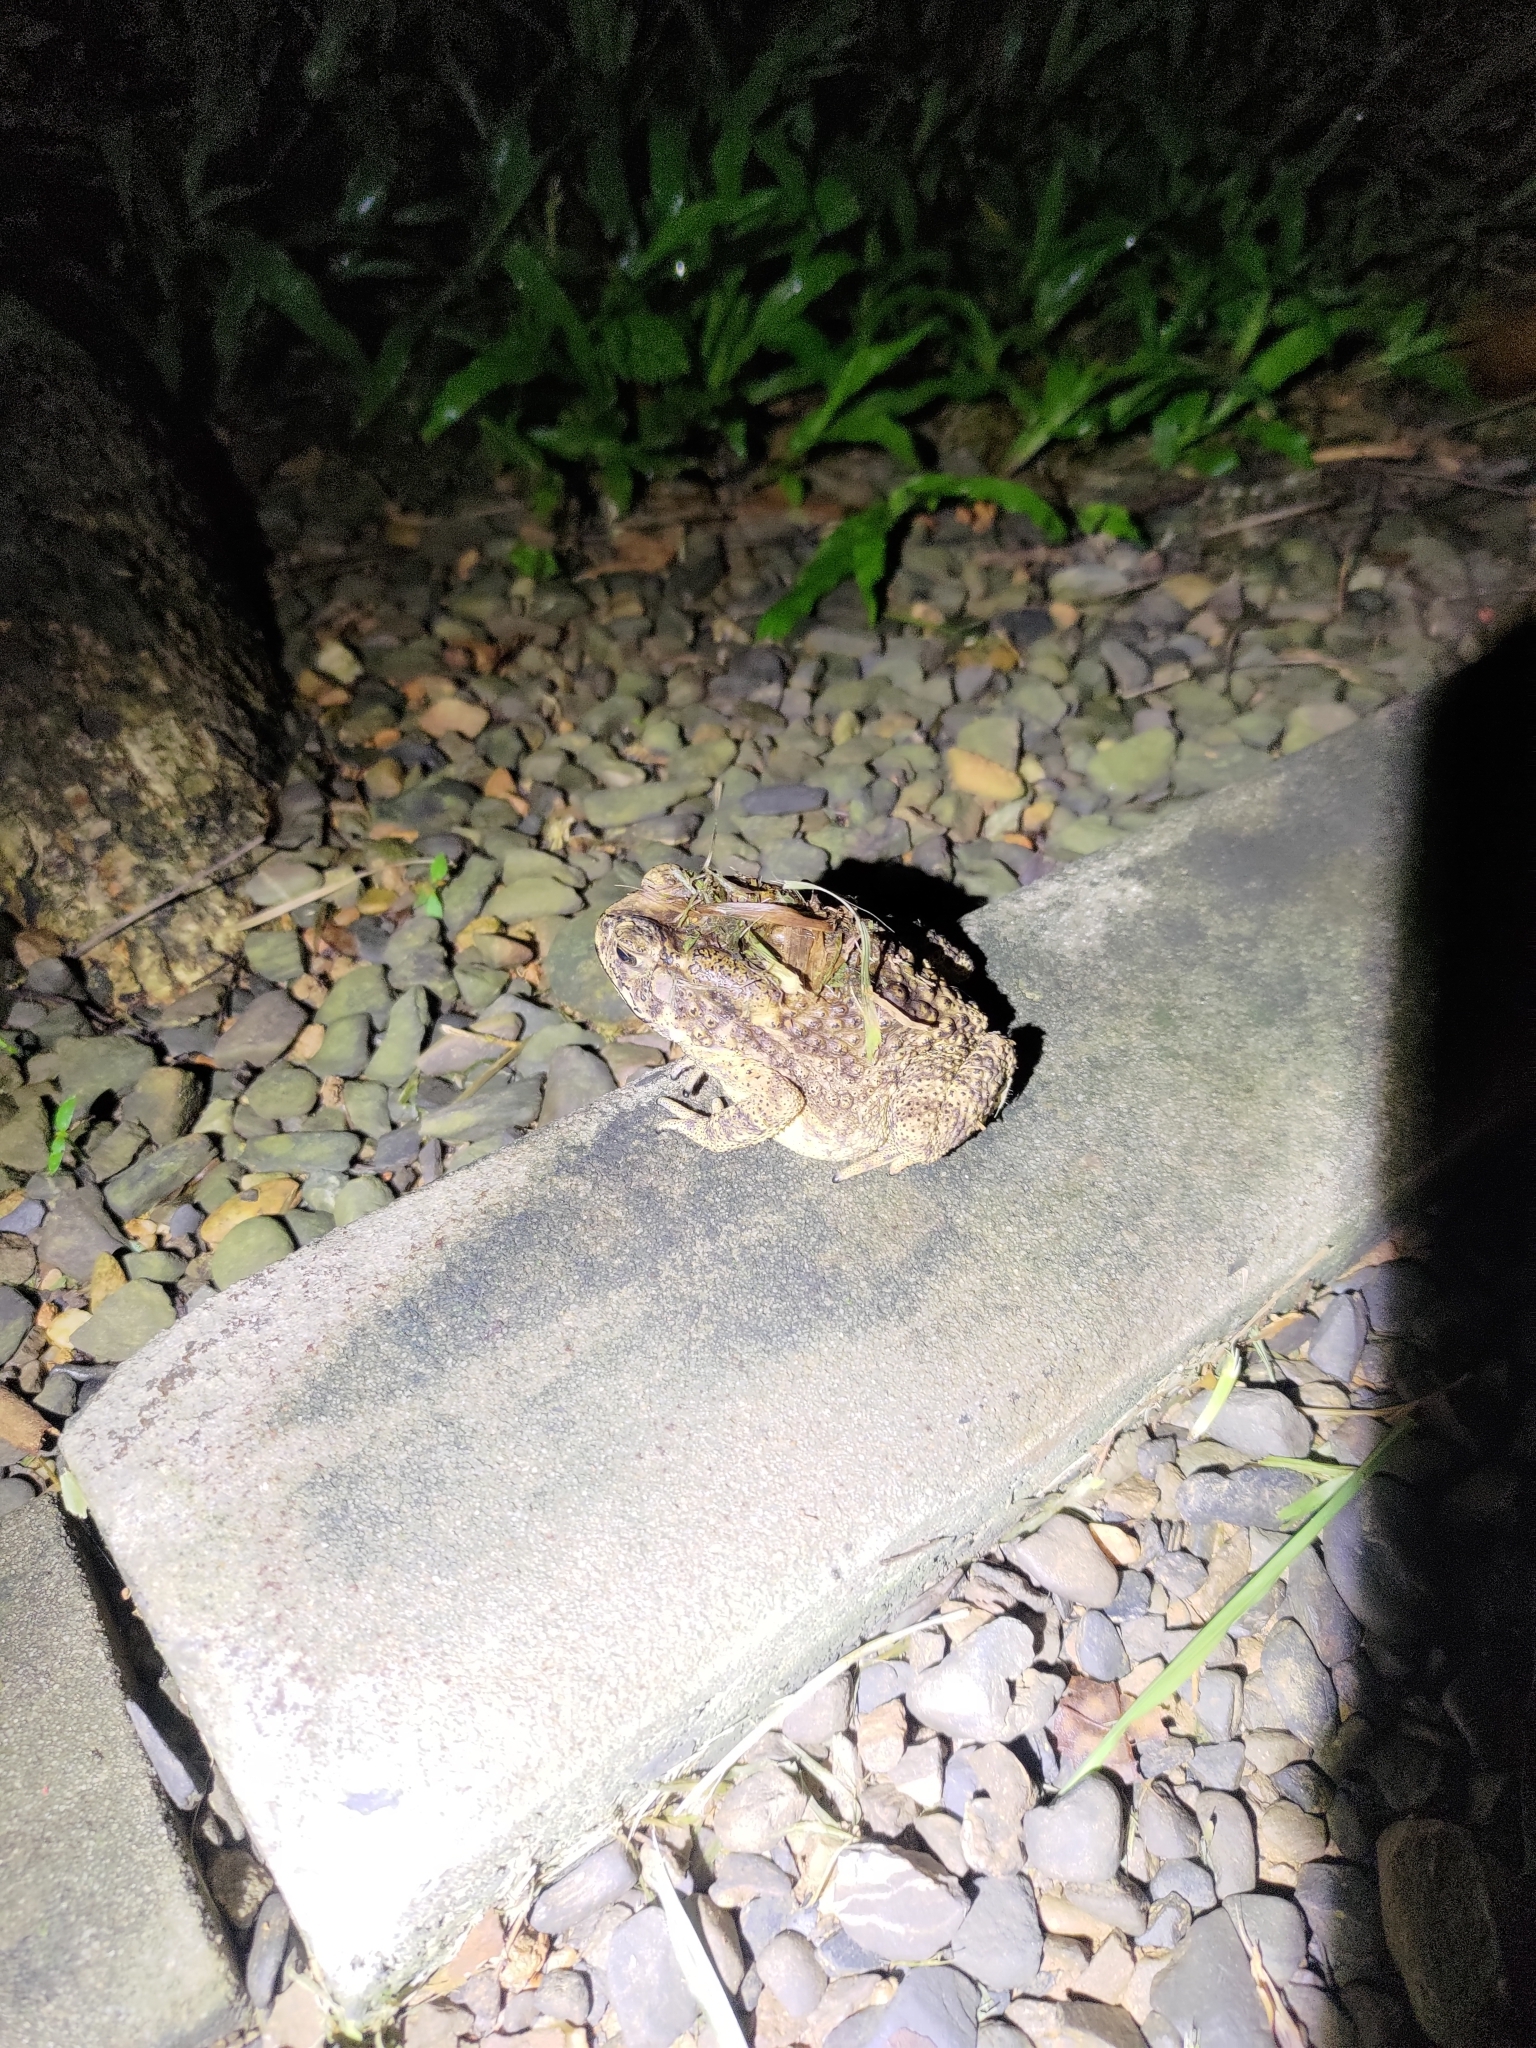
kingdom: Animalia
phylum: Chordata
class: Amphibia
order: Anura
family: Bufonidae
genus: Duttaphrynus
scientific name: Duttaphrynus melanostictus
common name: Common sunda toad
